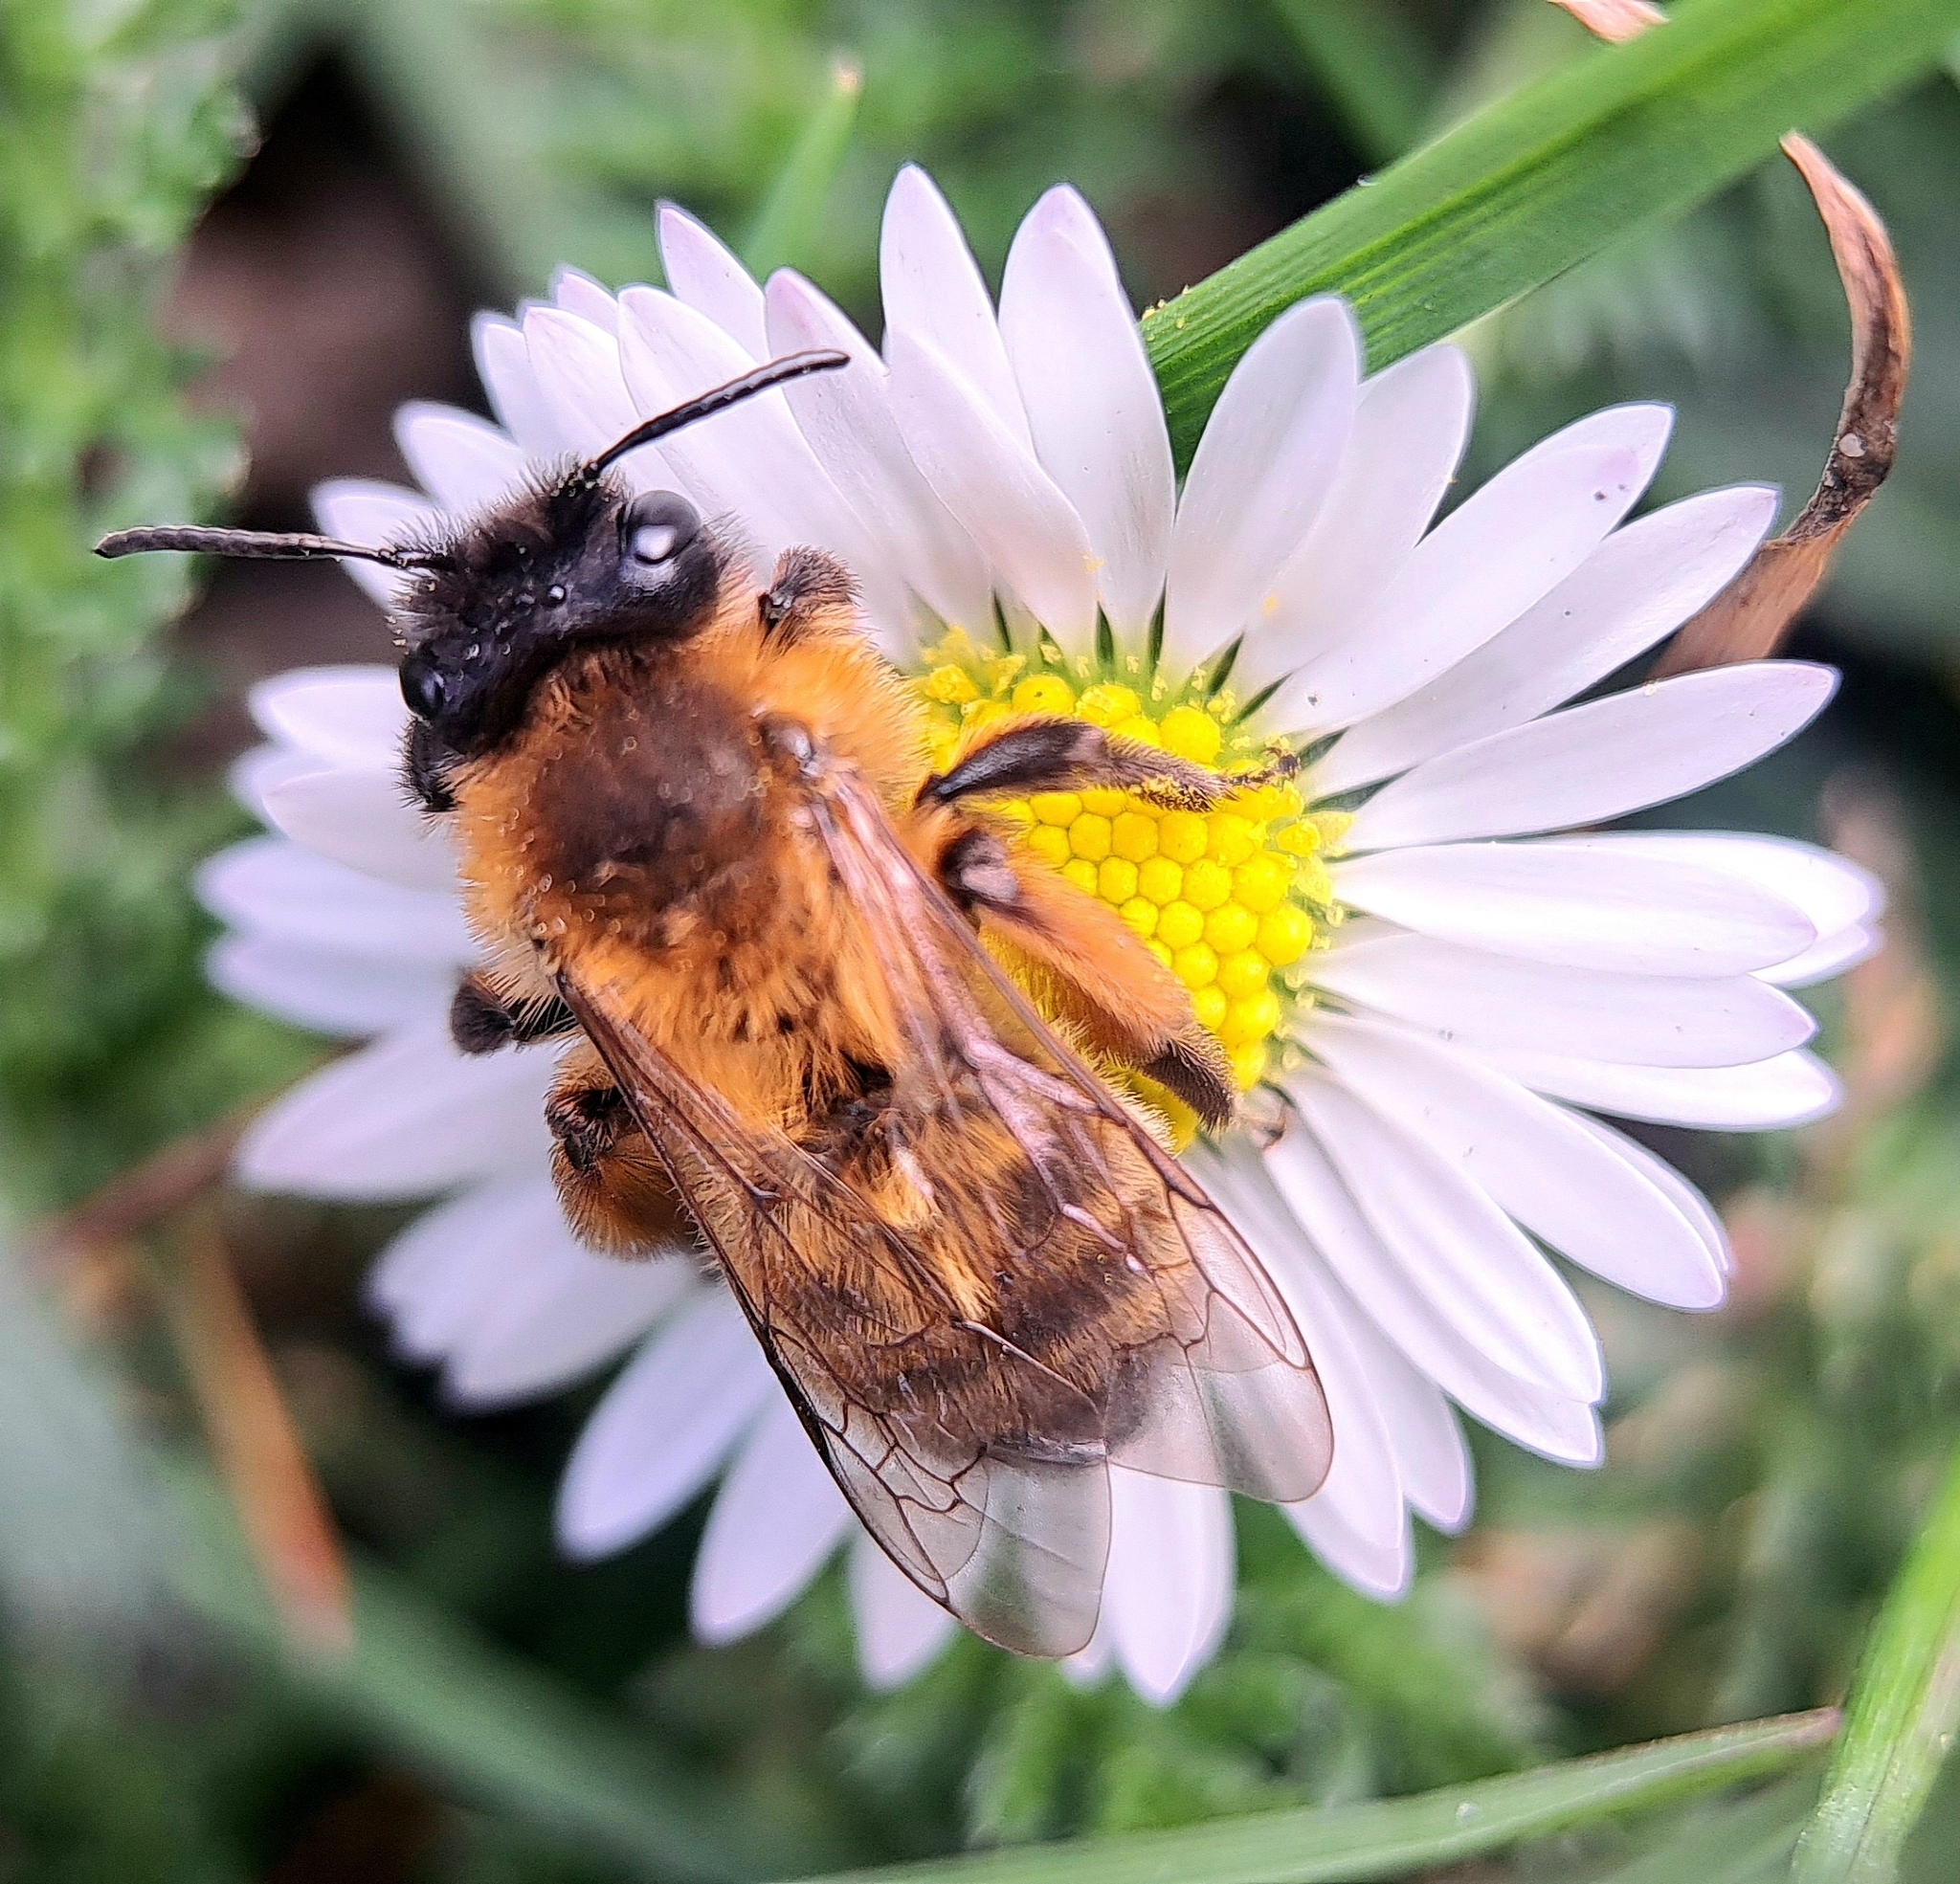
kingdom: Animalia
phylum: Arthropoda
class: Insecta
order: Hymenoptera
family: Andrenidae
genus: Andrena
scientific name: Andrena nigroaenea
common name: Buffish mining bee
